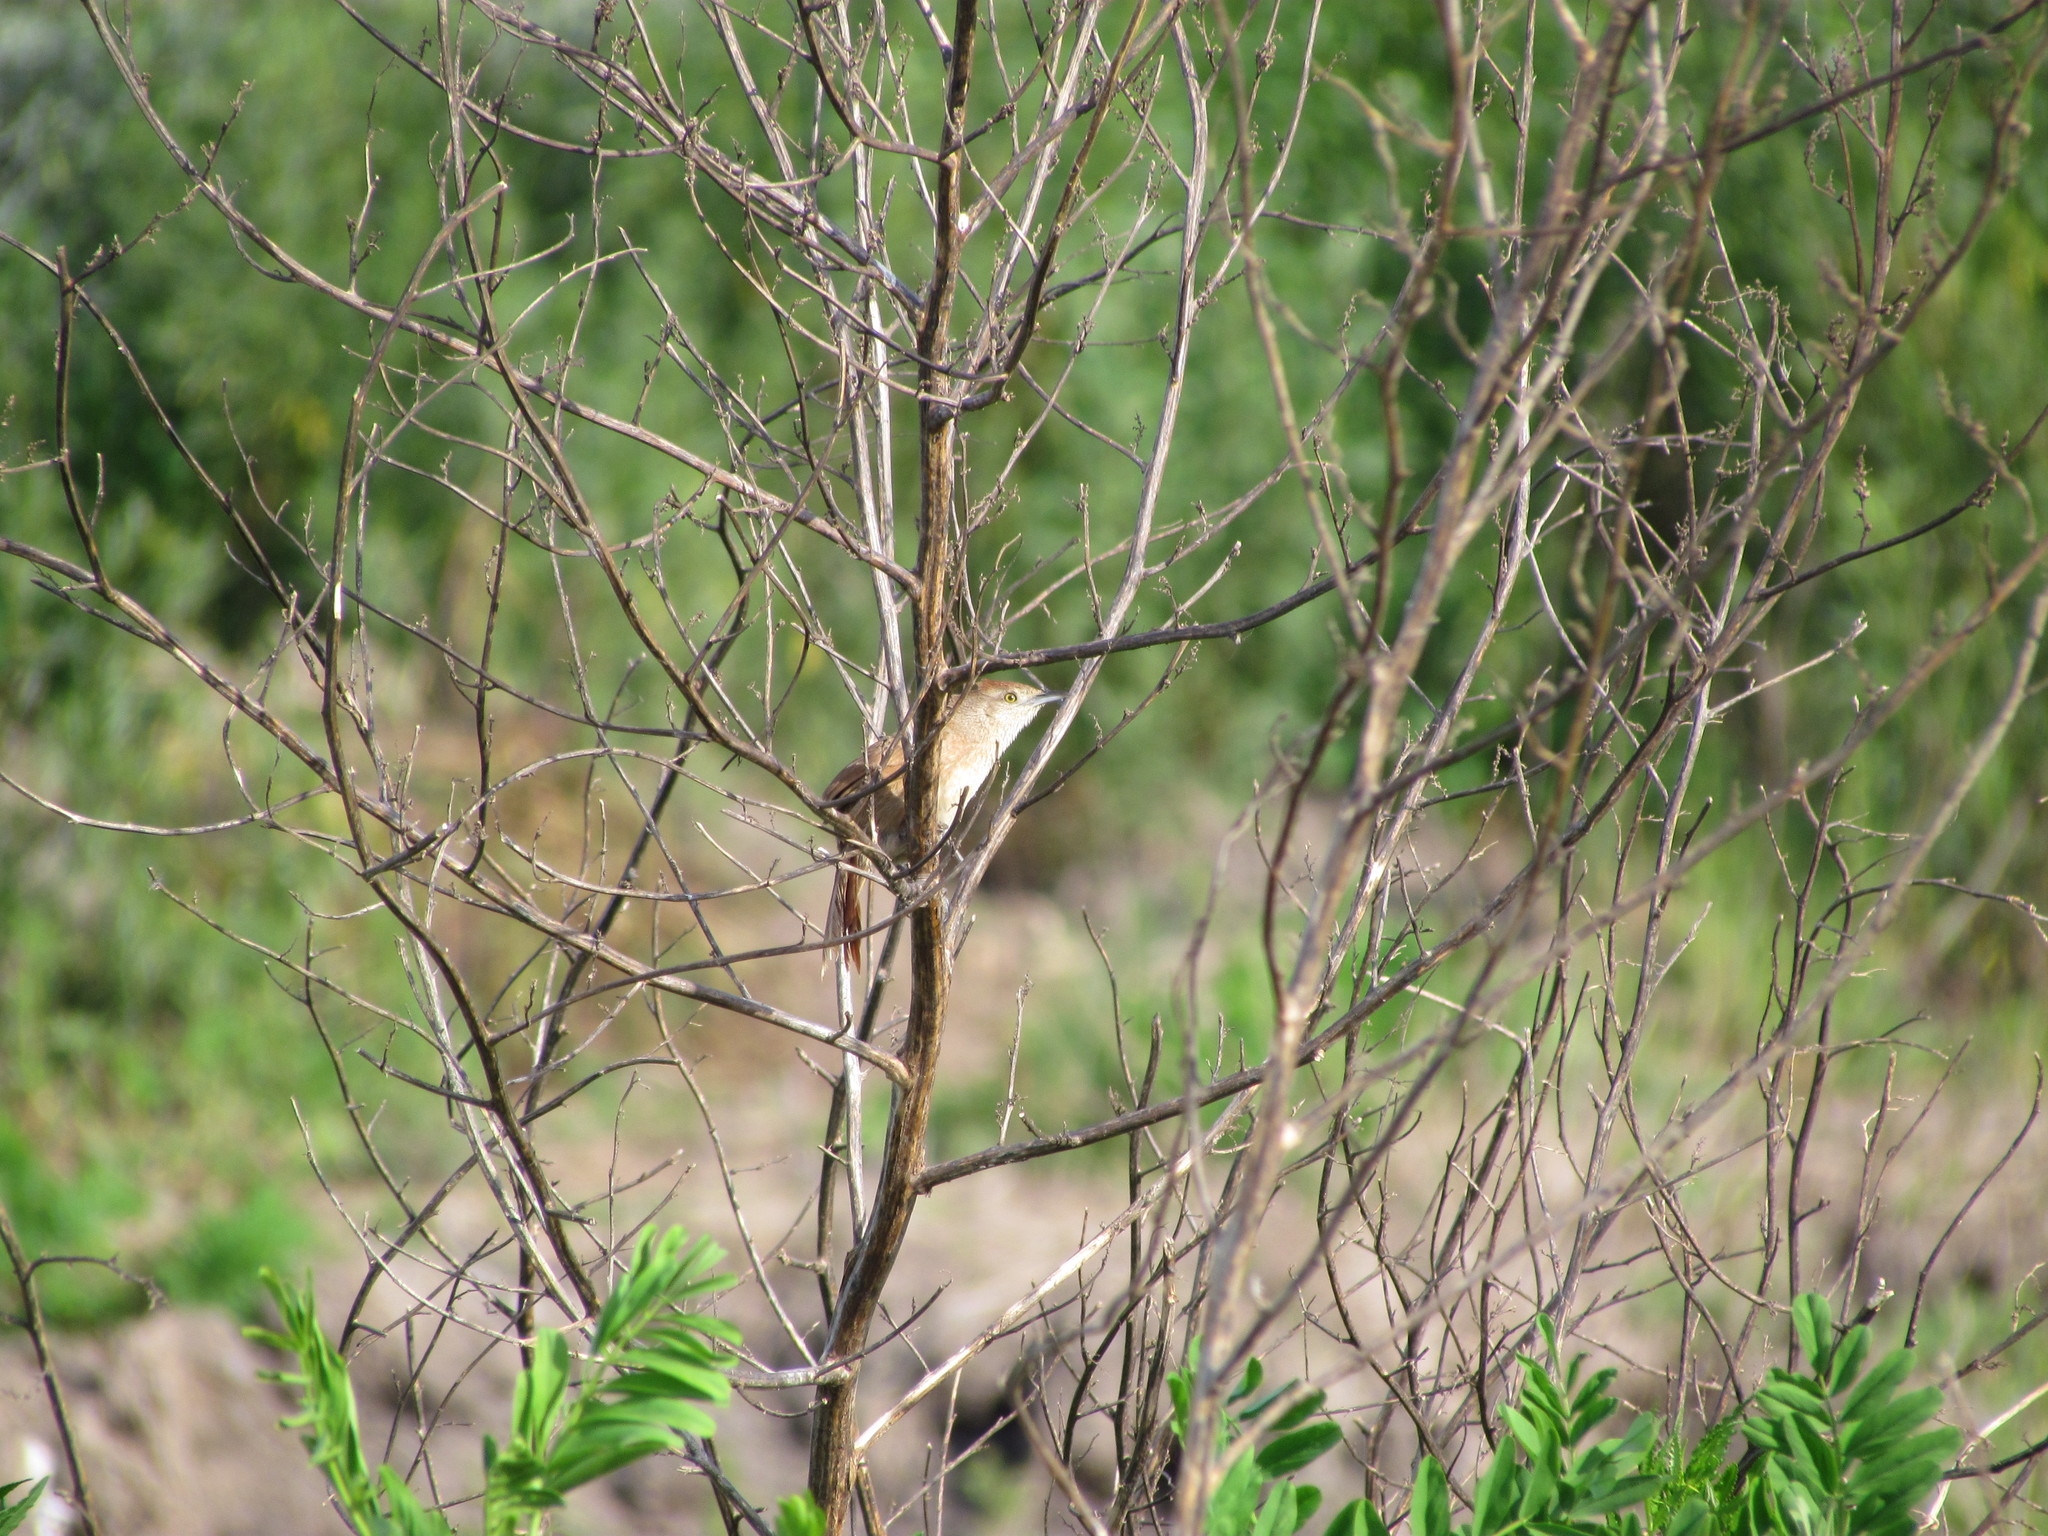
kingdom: Animalia
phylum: Chordata
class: Aves
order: Passeriformes
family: Furnariidae
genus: Phacellodomus
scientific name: Phacellodomus striaticollis
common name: Freckle-breasted thornbird
